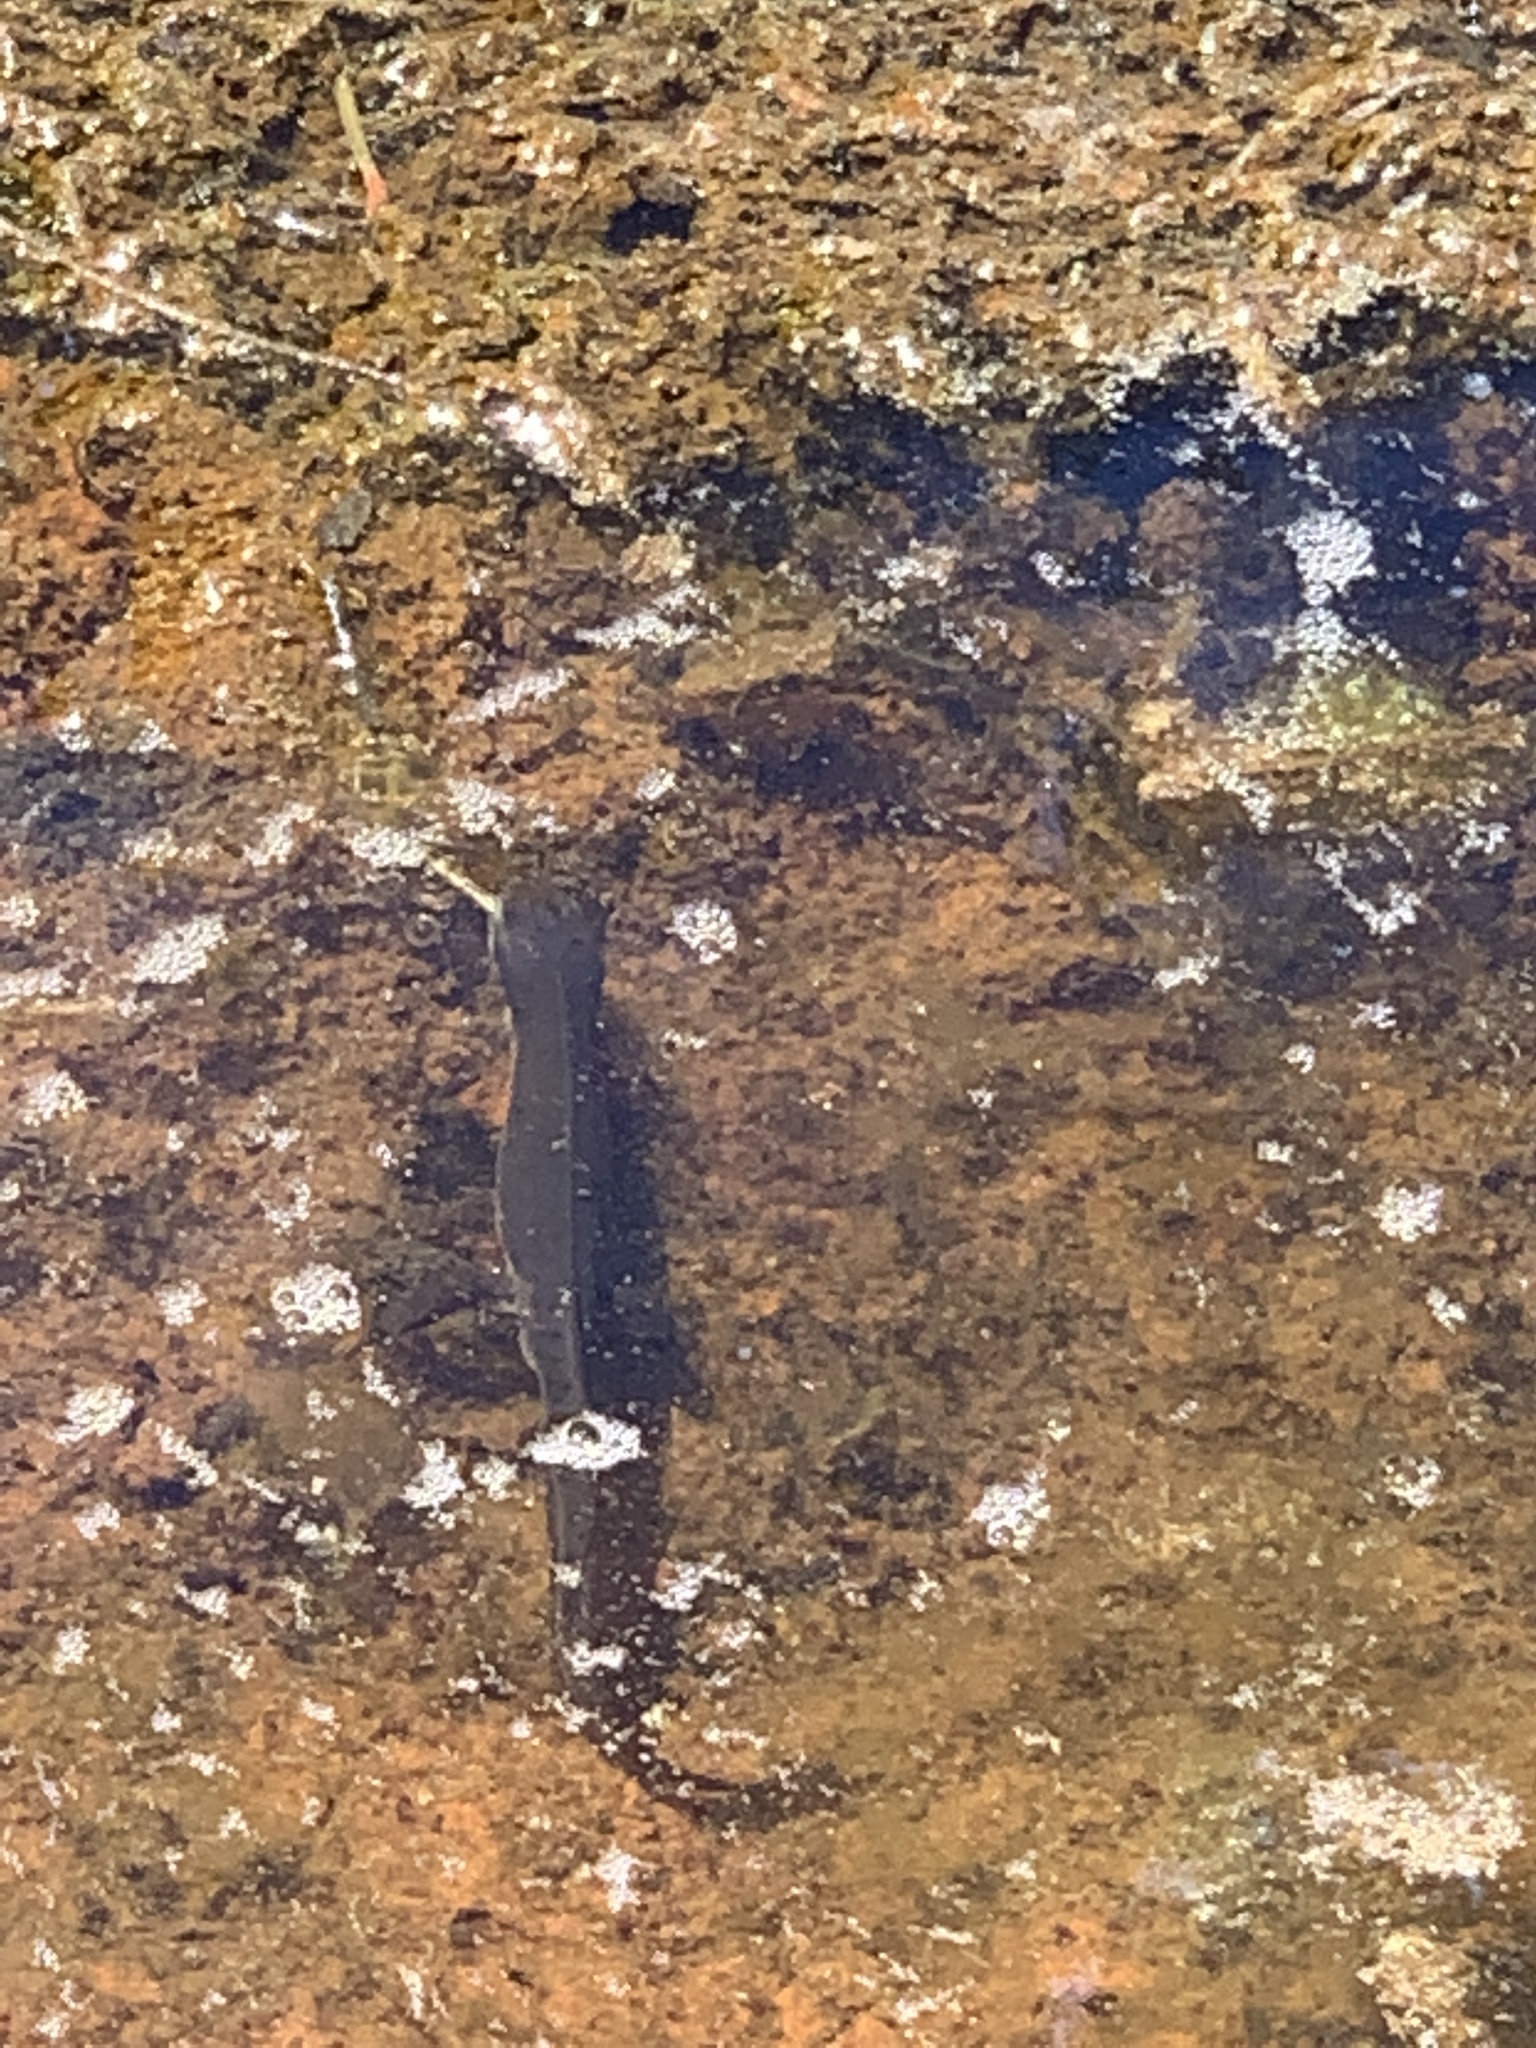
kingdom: Animalia
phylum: Chordata
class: Amphibia
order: Caudata
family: Salamandridae
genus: Notophthalmus
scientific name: Notophthalmus viridescens
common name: Eastern newt
